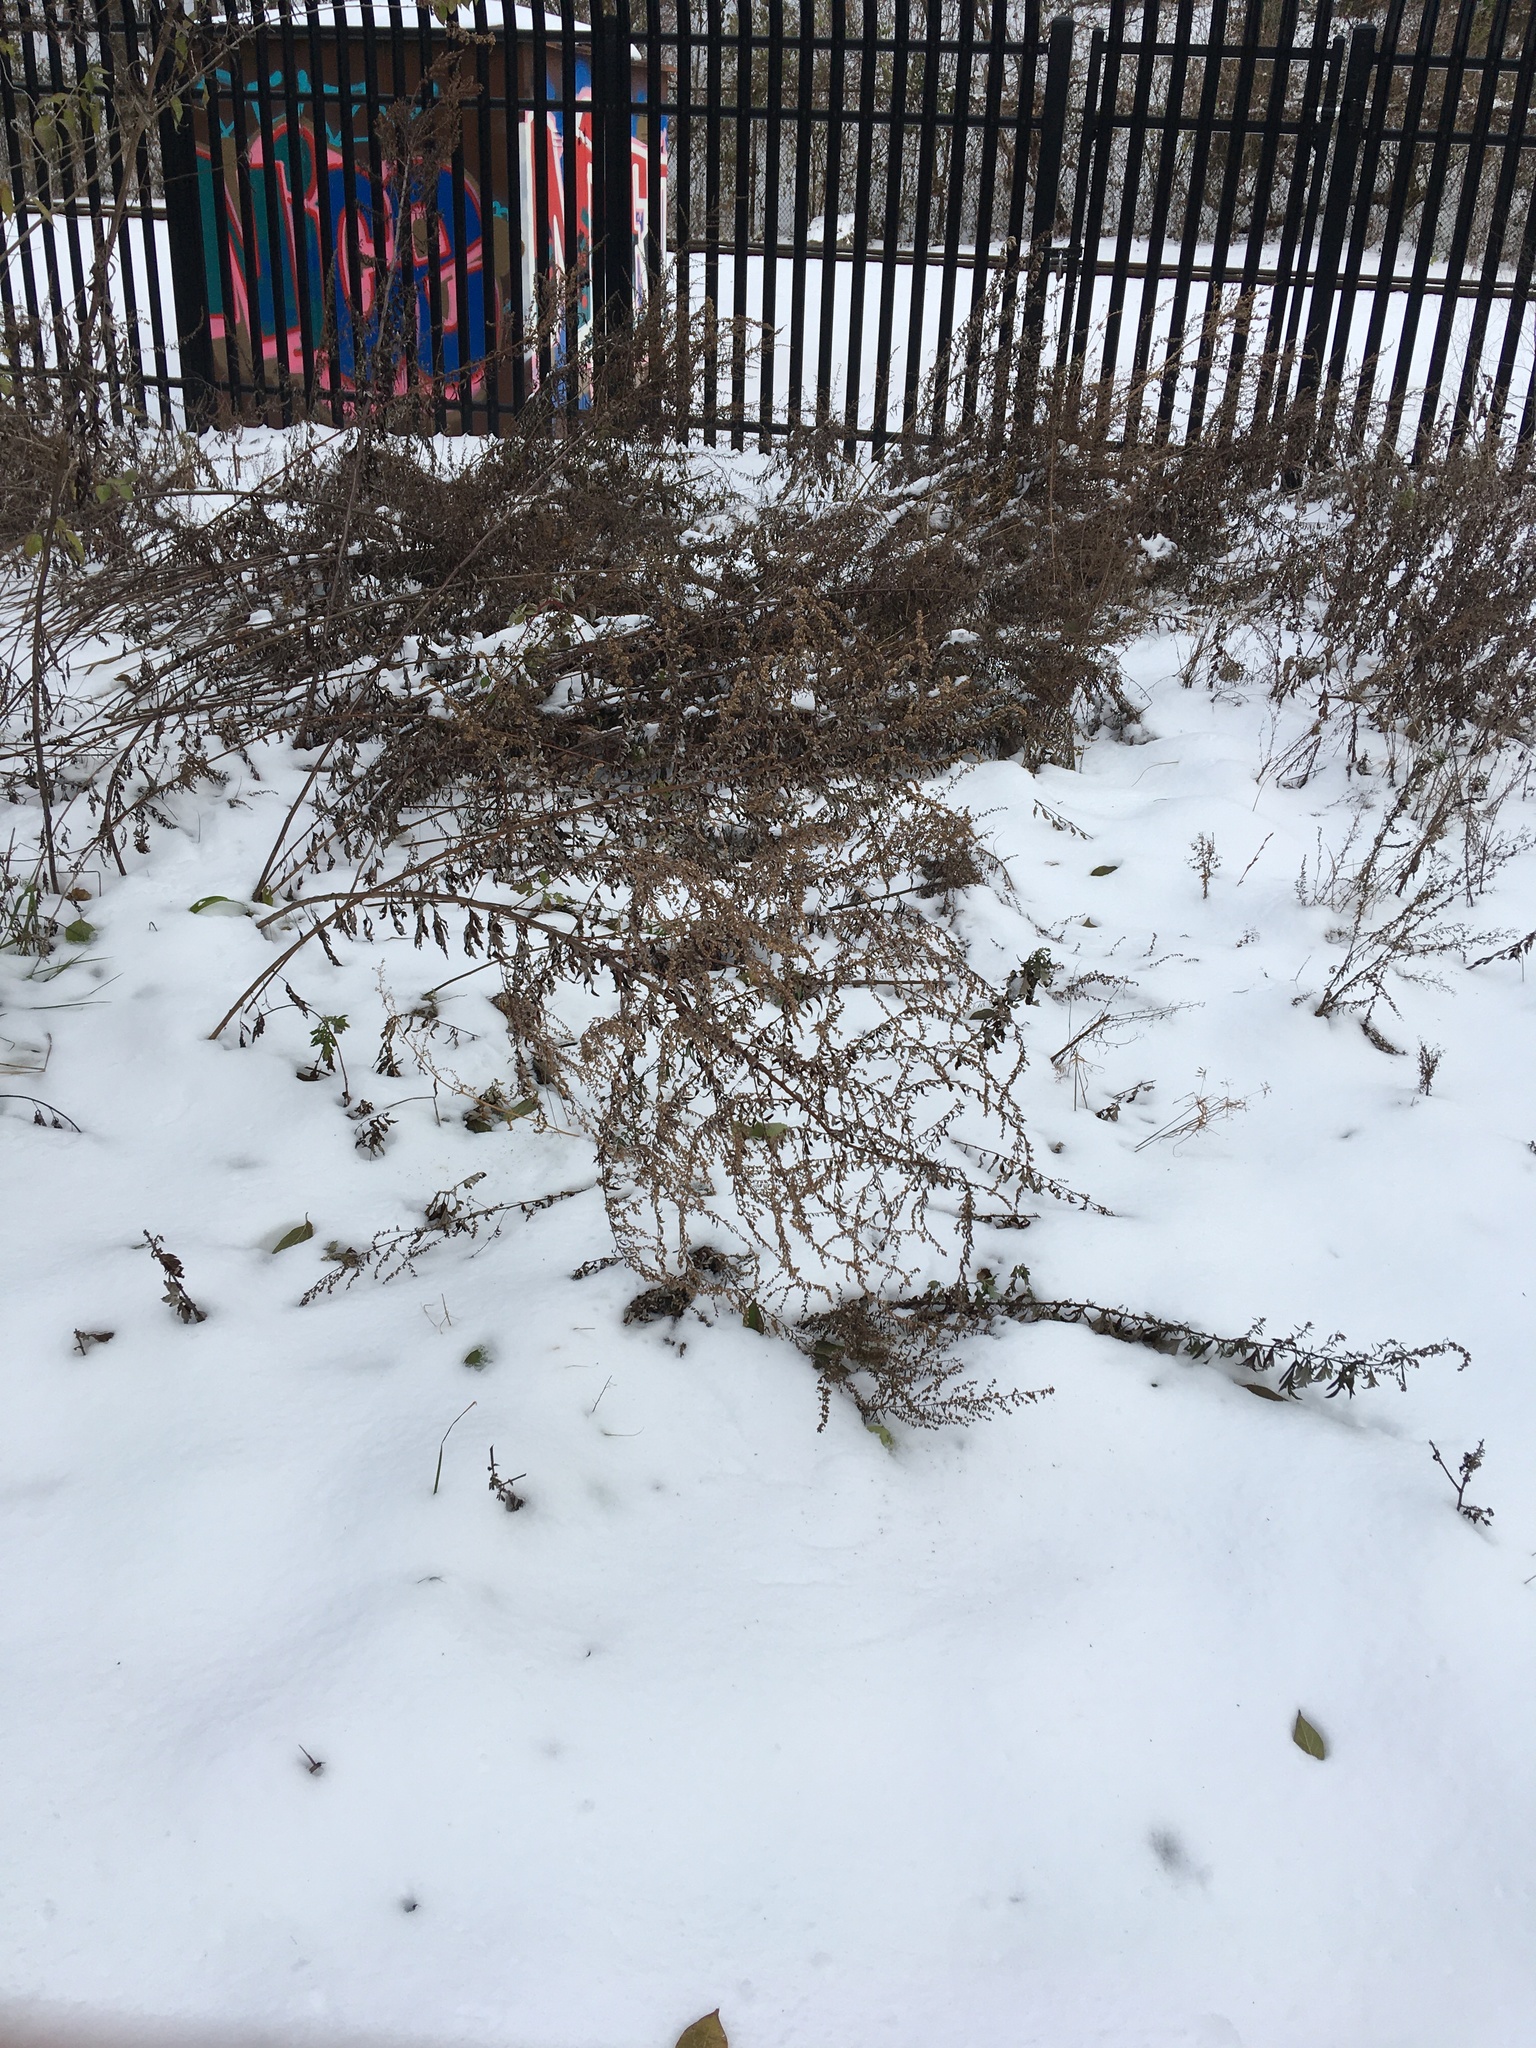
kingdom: Plantae
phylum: Tracheophyta
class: Magnoliopsida
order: Asterales
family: Asteraceae
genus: Artemisia
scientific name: Artemisia vulgaris
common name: Mugwort
